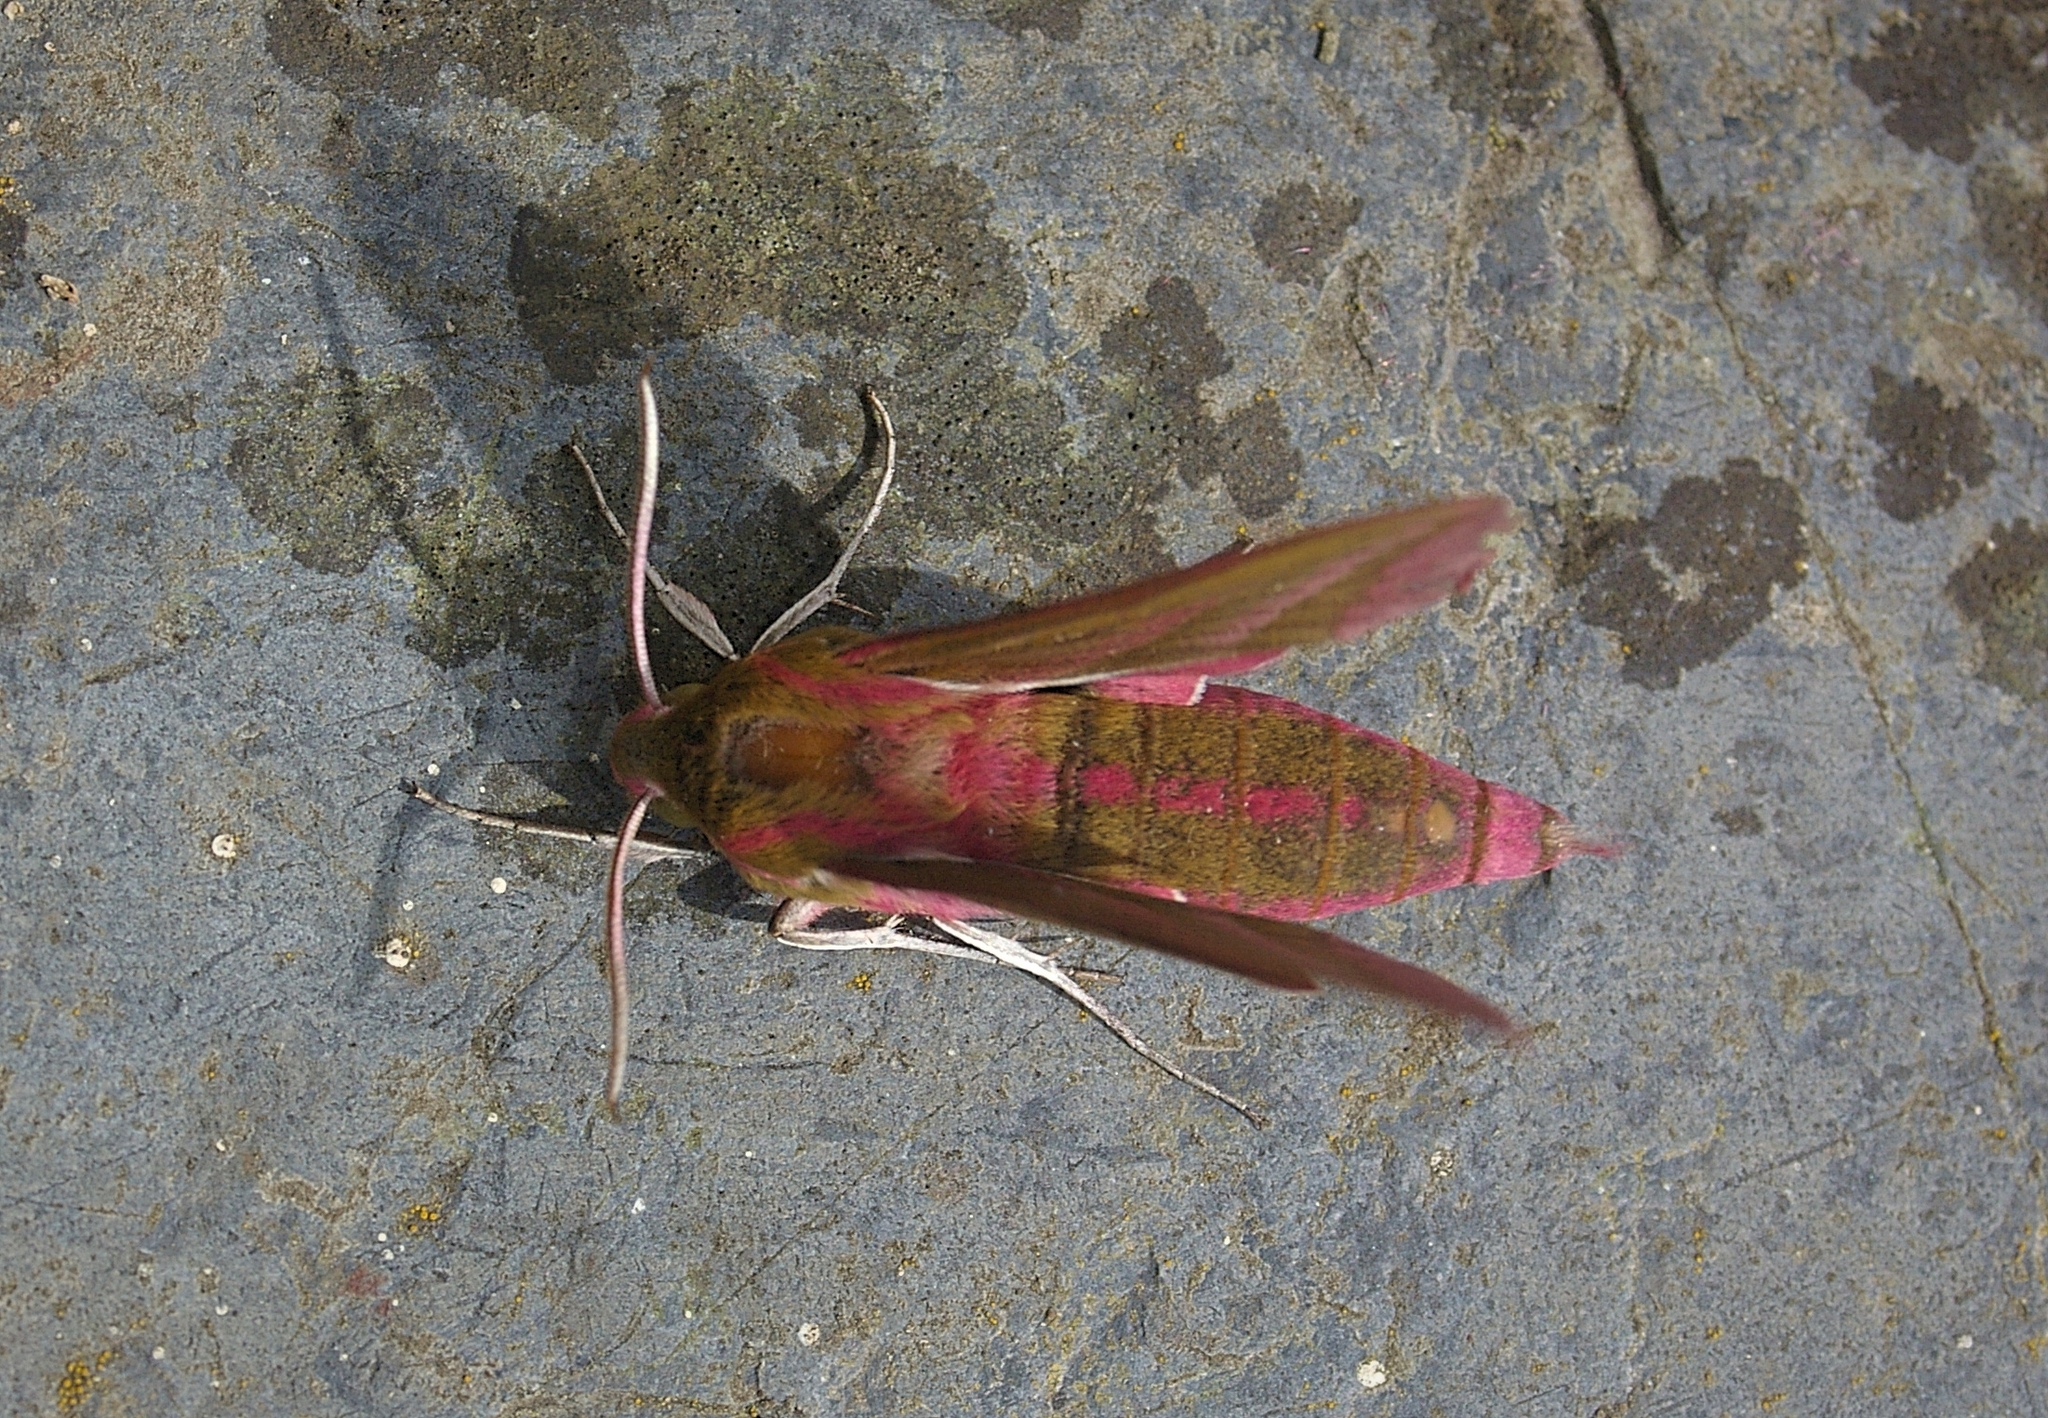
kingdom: Animalia
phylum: Arthropoda
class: Insecta
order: Lepidoptera
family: Sphingidae
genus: Deilephila
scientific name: Deilephila elpenor
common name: Elephant hawk-moth
